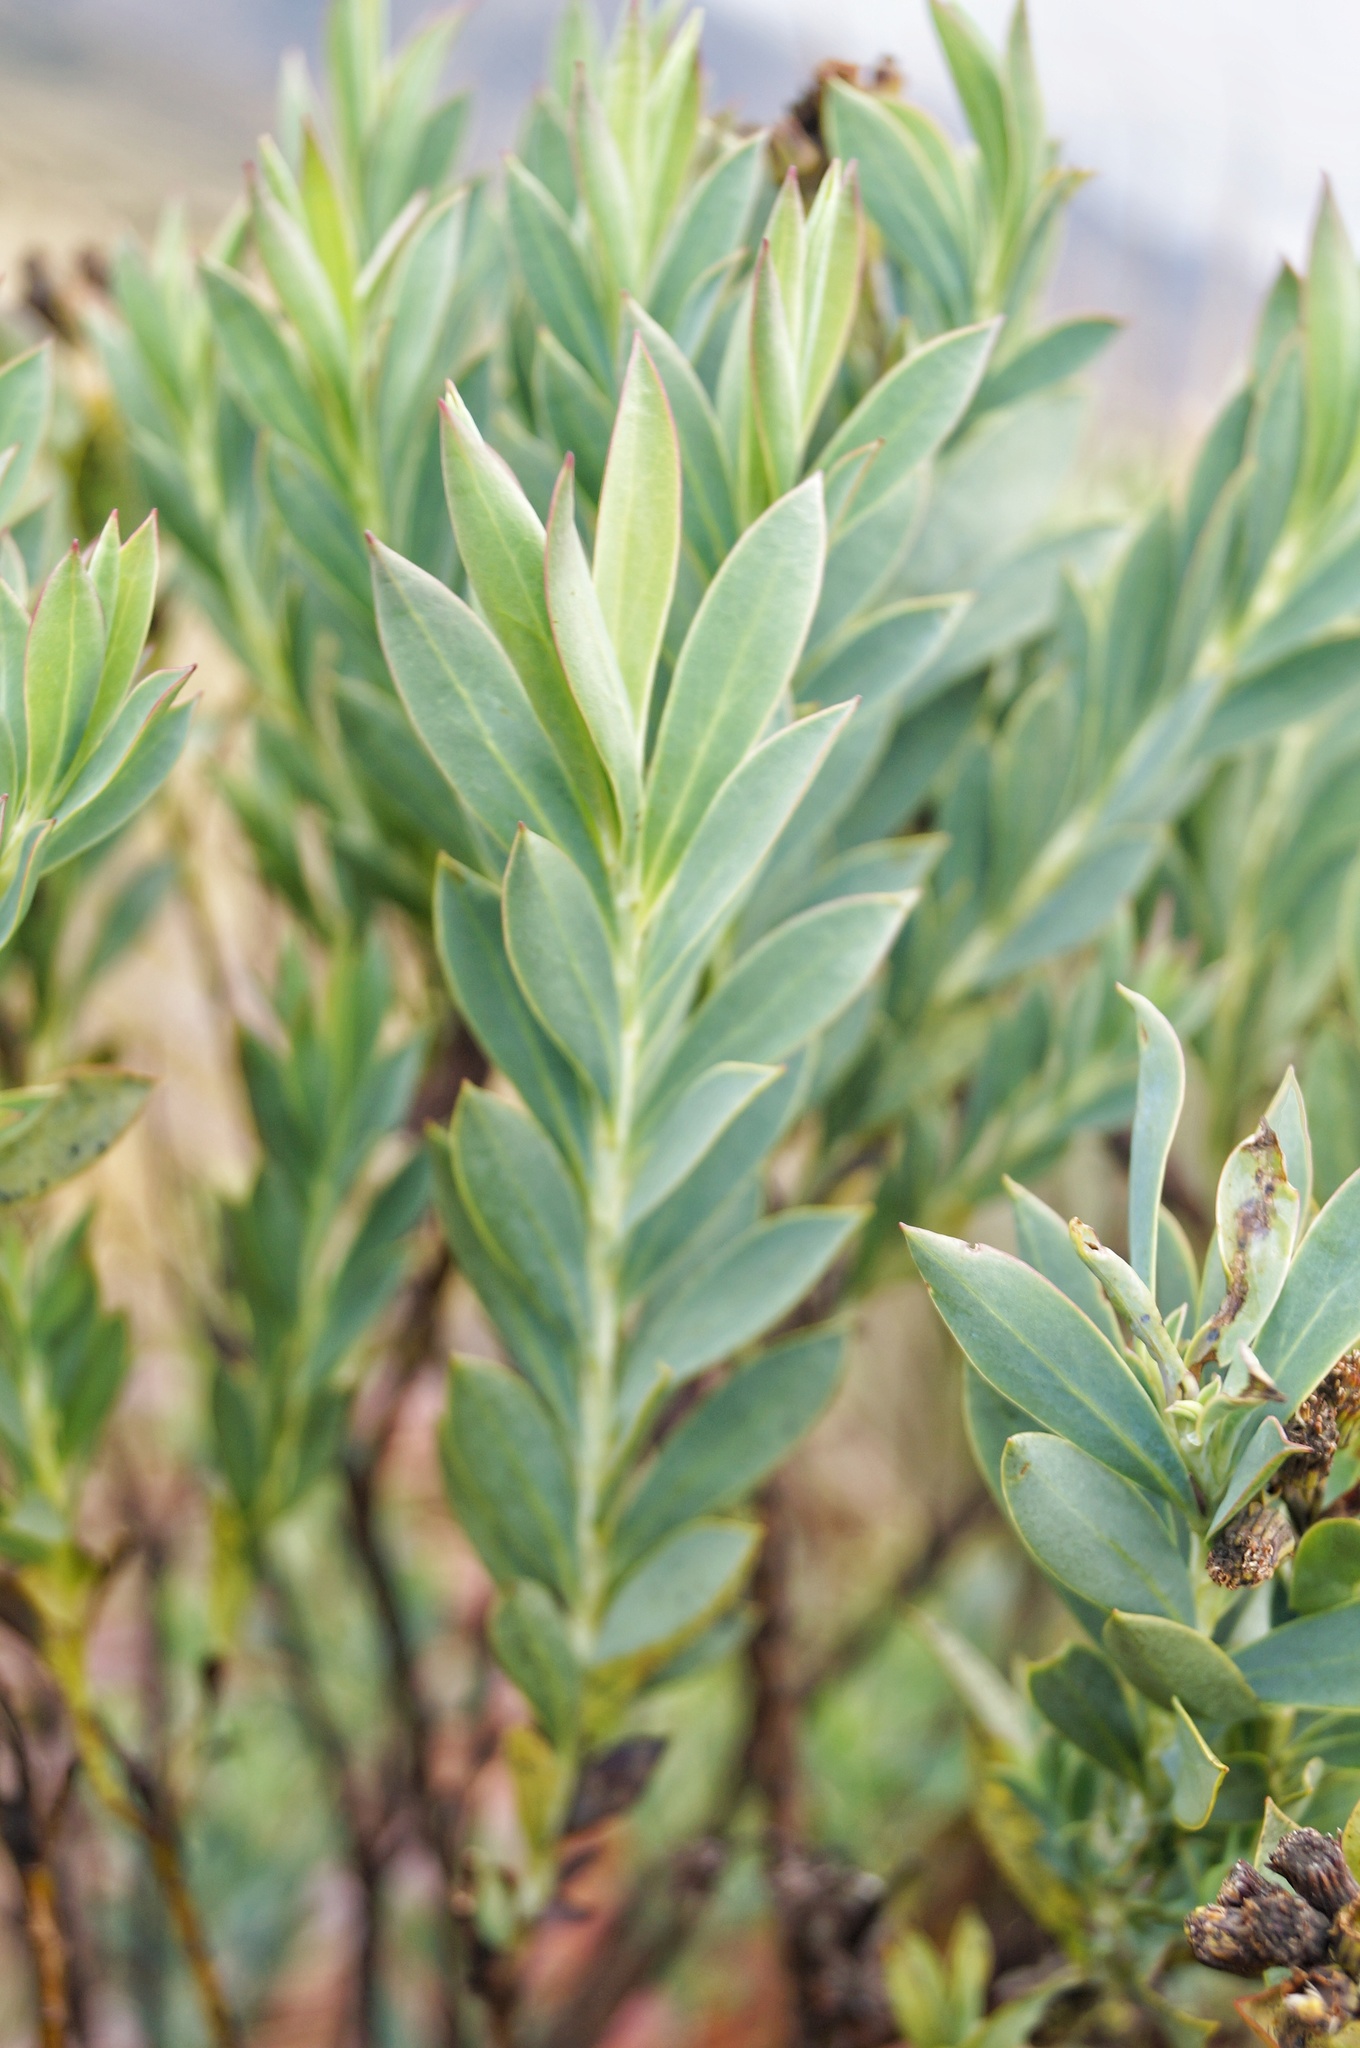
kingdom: Plantae
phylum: Tracheophyta
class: Magnoliopsida
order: Asterales
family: Asteraceae
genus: Monticalia
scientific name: Monticalia vaccinioides
